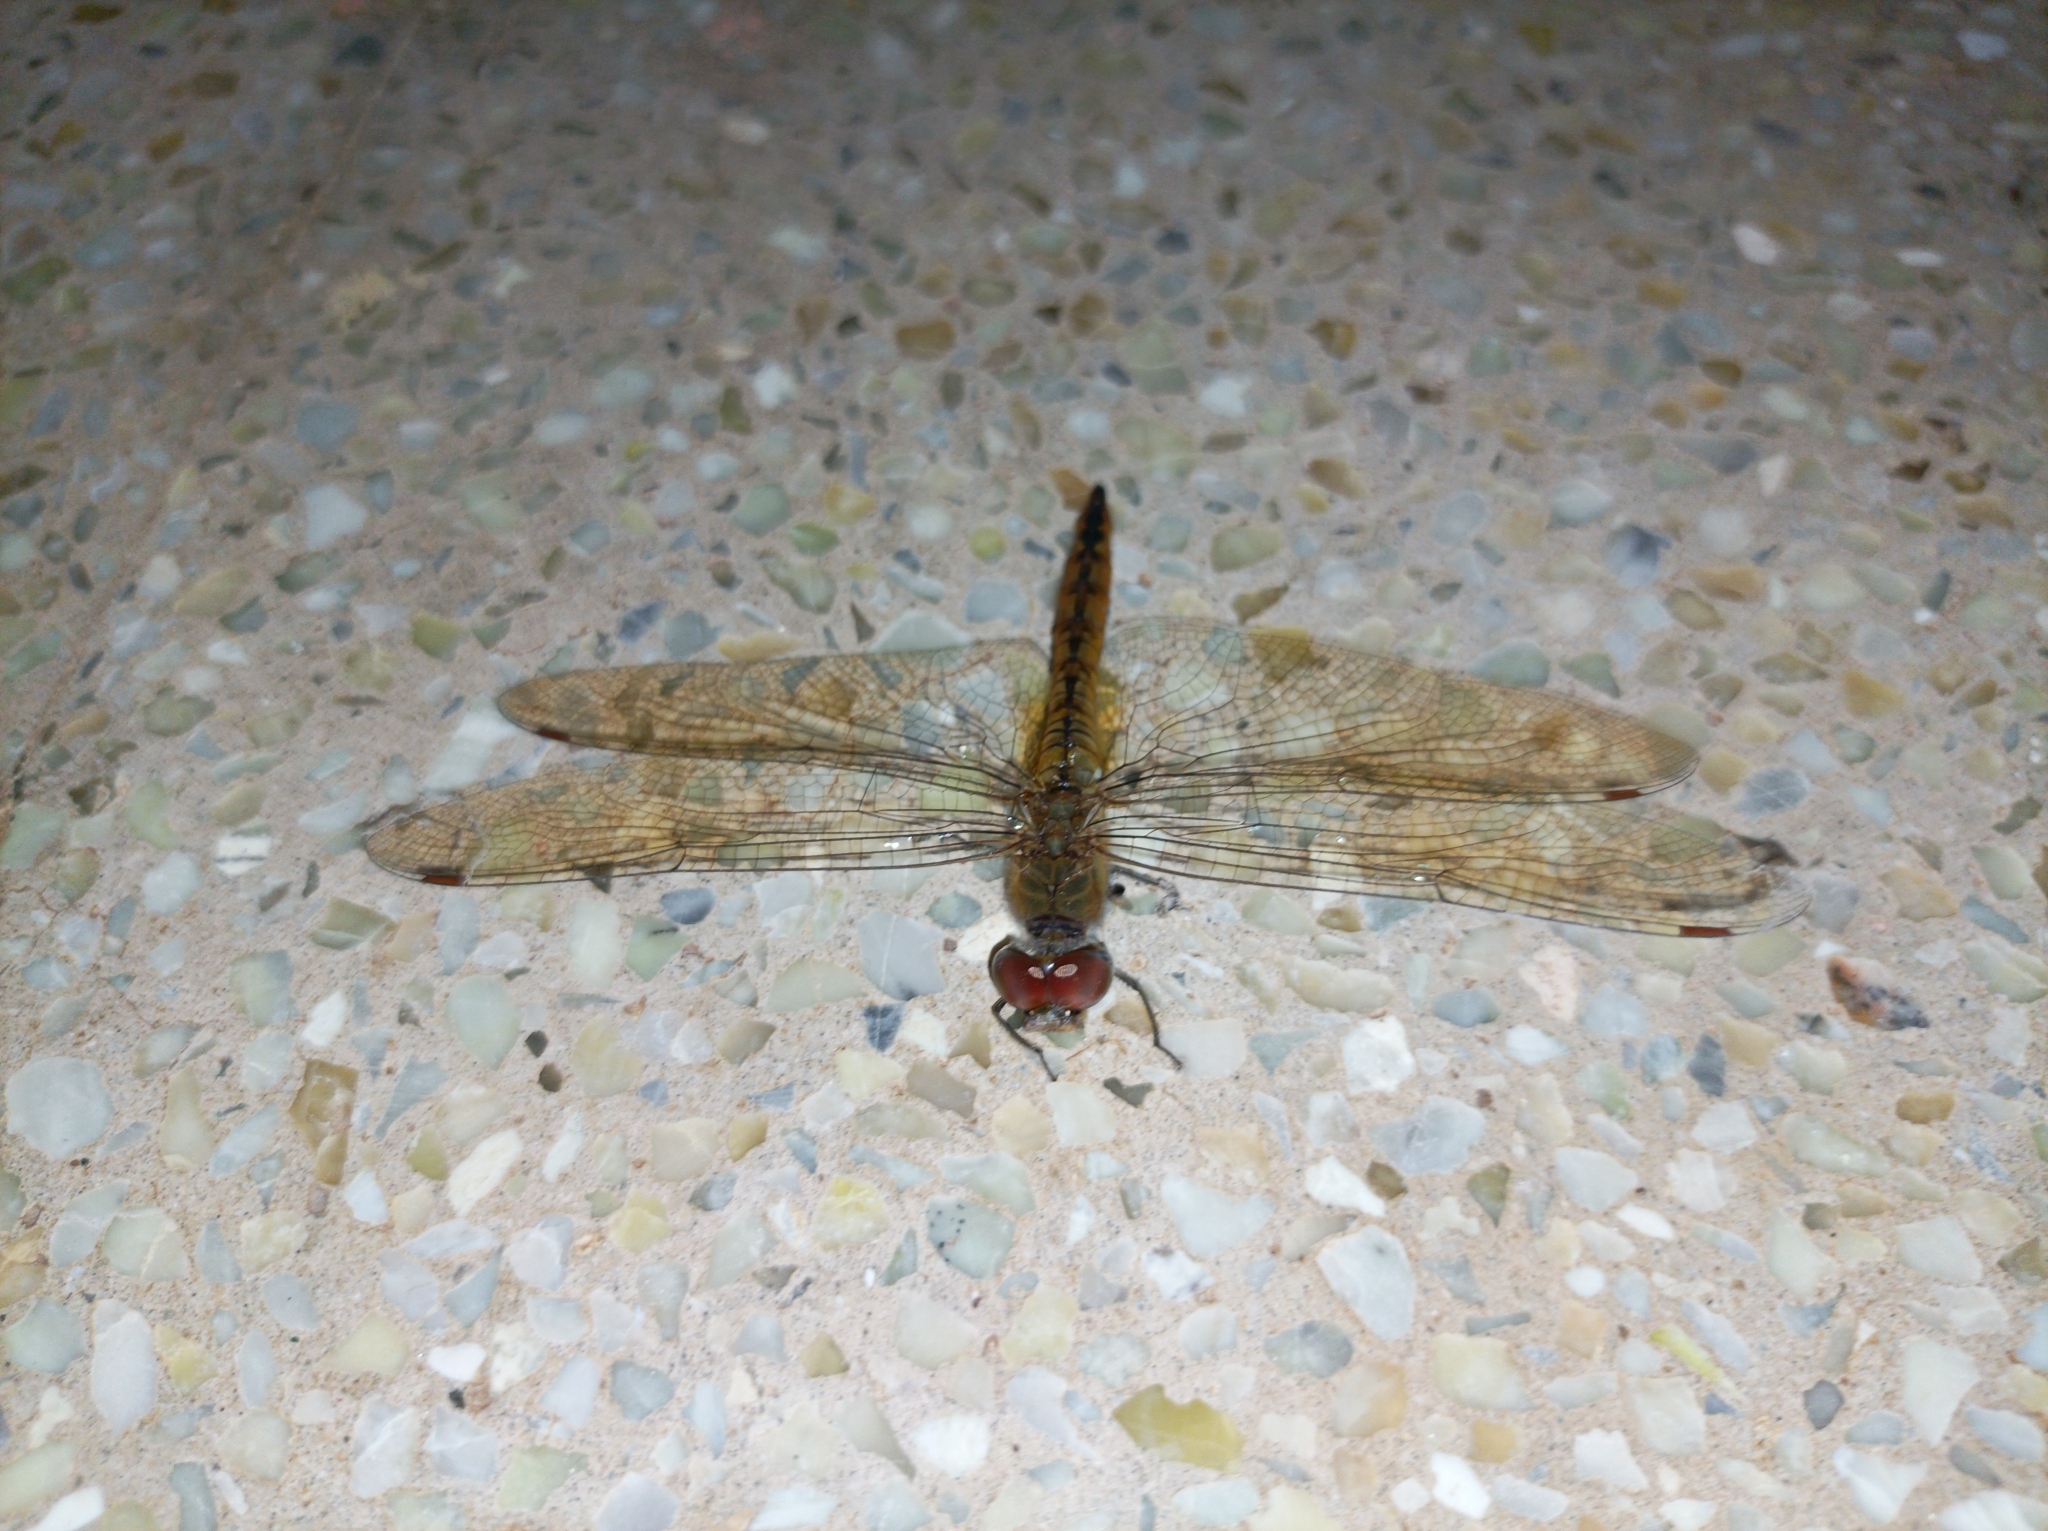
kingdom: Animalia
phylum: Arthropoda
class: Insecta
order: Odonata
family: Libellulidae
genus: Pantala
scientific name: Pantala flavescens
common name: Wandering glider
